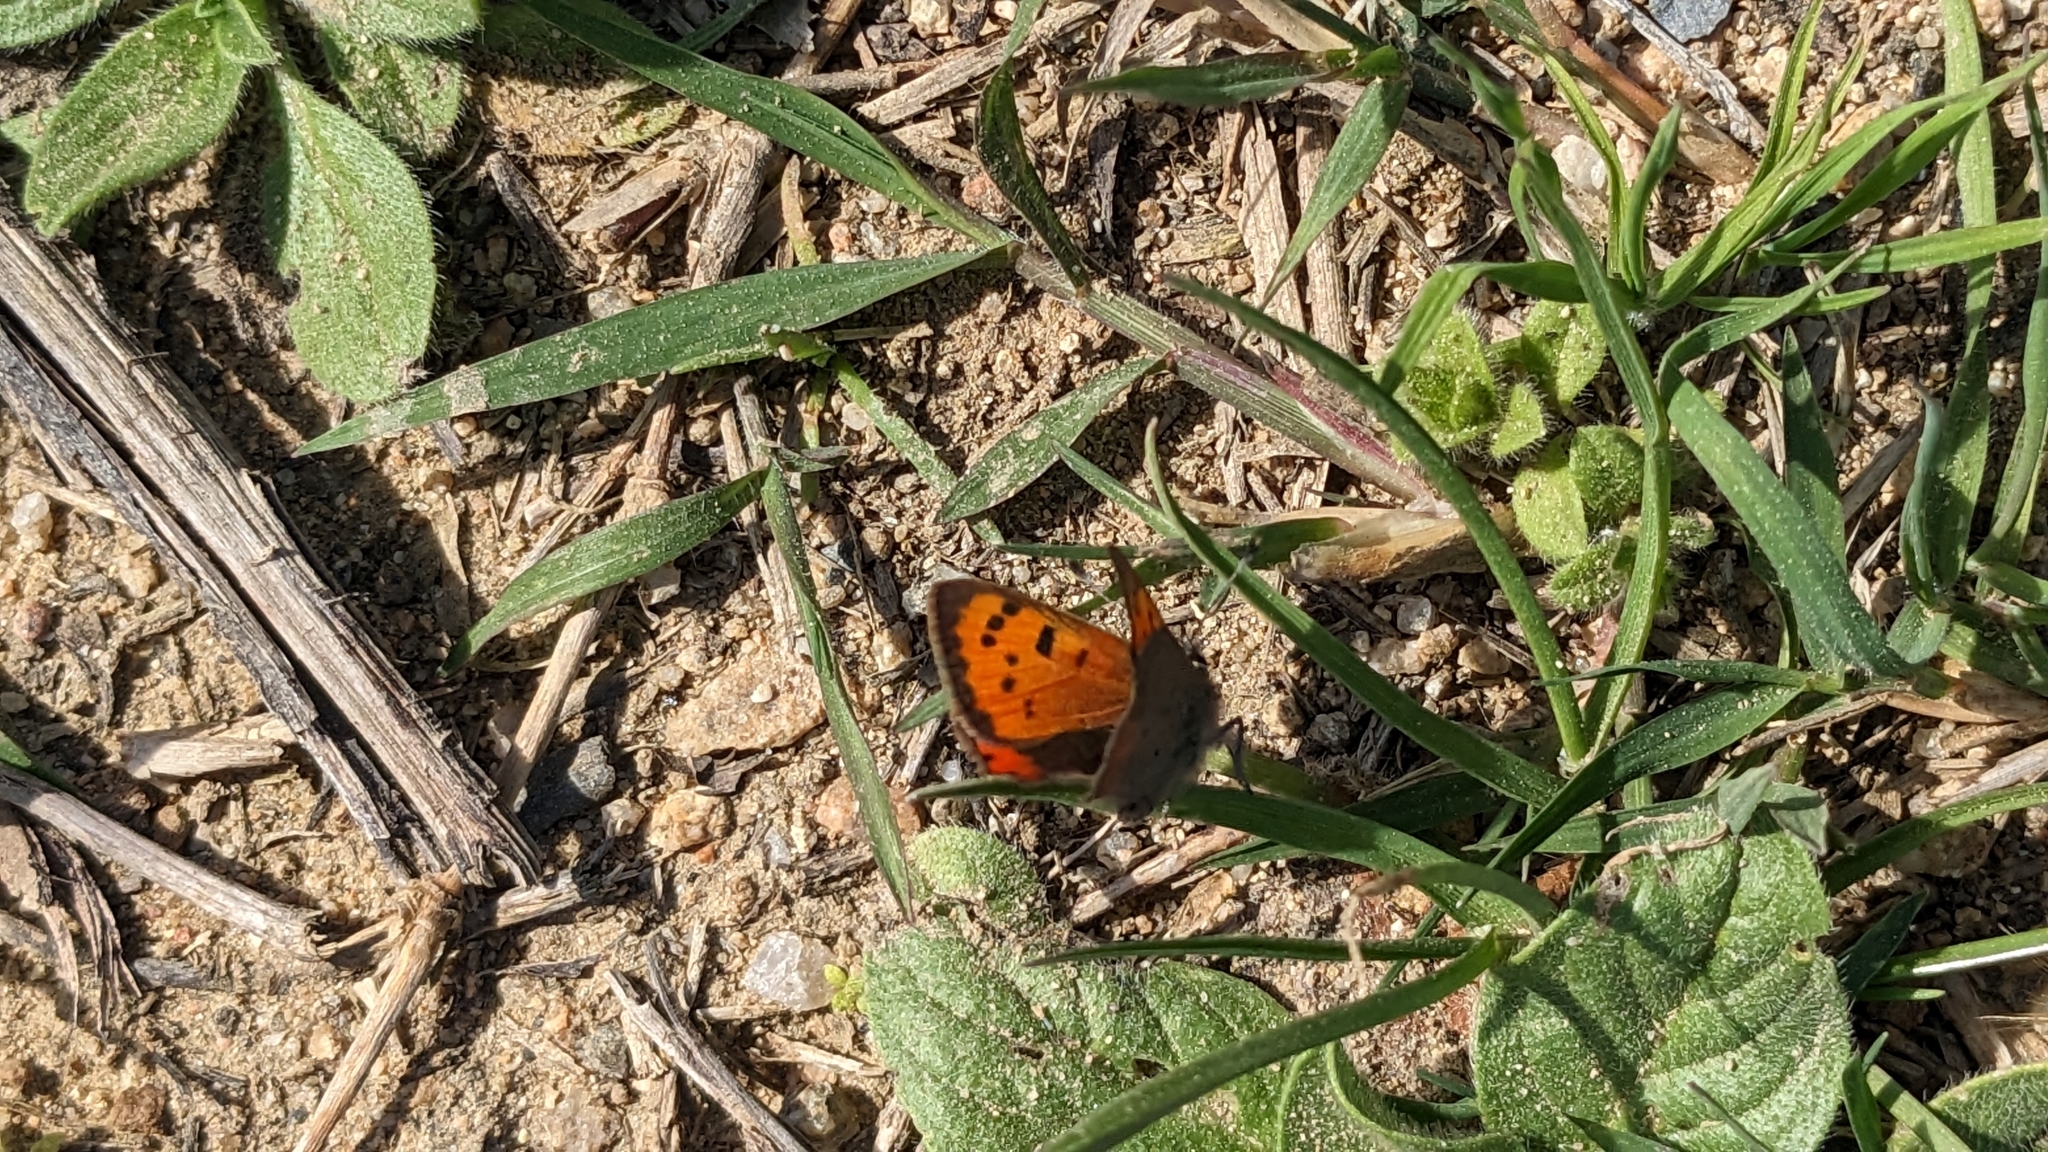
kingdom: Animalia
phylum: Arthropoda
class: Insecta
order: Lepidoptera
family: Lycaenidae
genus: Lycaena
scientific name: Lycaena phlaeas
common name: Small copper
